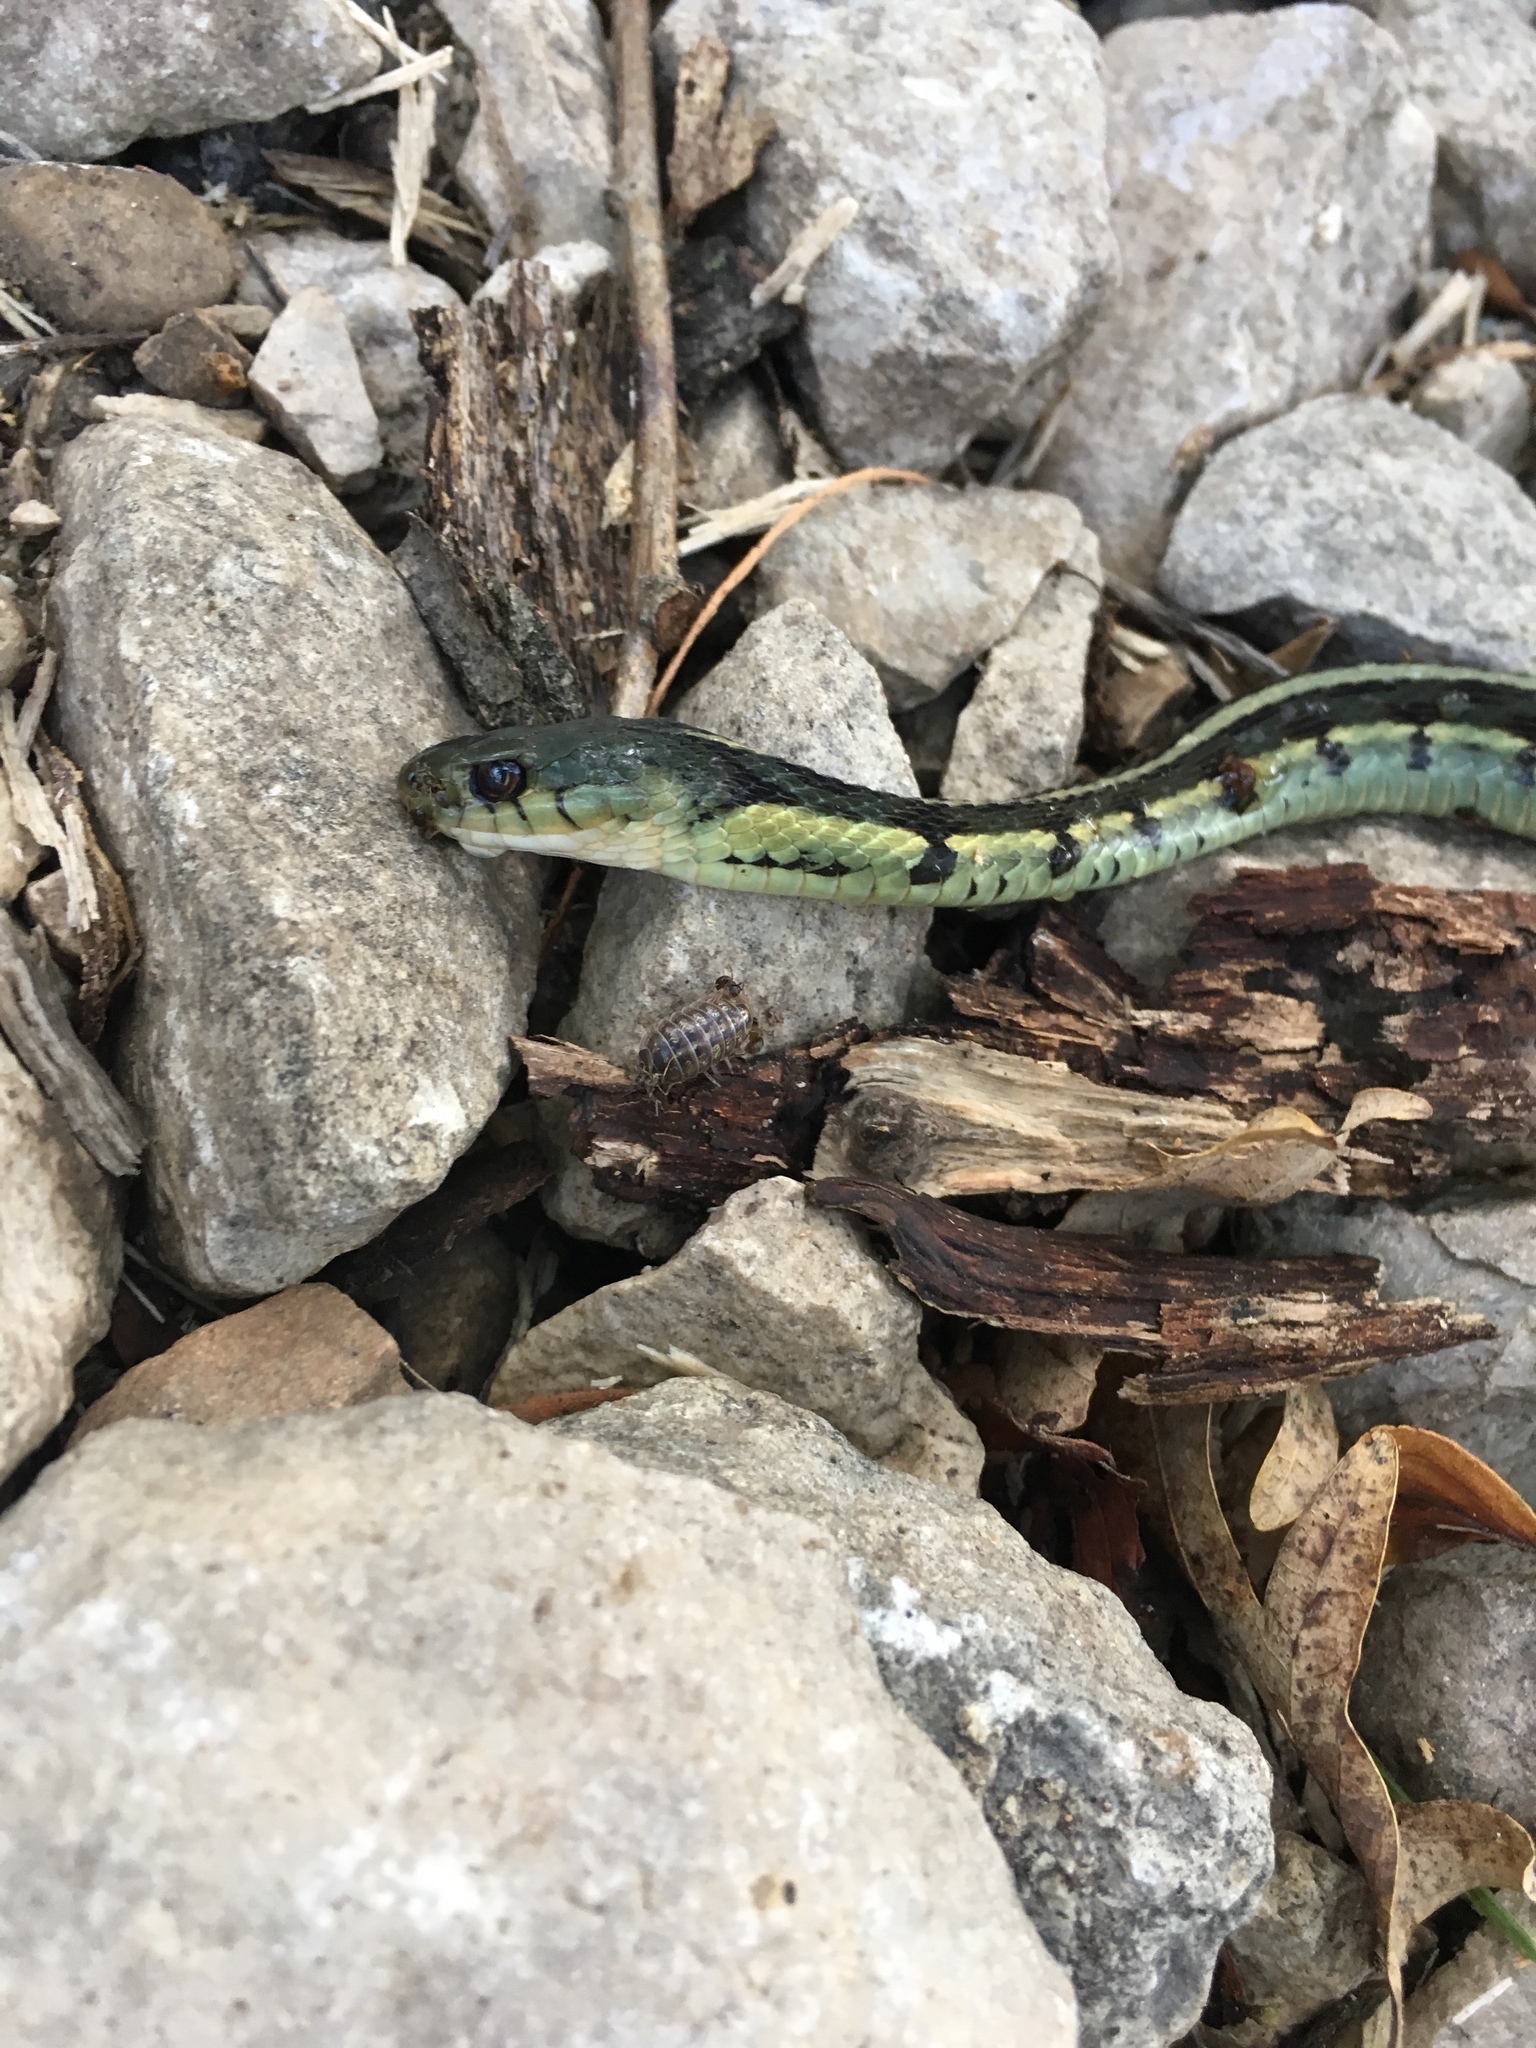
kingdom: Animalia
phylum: Chordata
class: Squamata
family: Colubridae
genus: Thamnophis
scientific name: Thamnophis sirtalis
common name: Common garter snake
